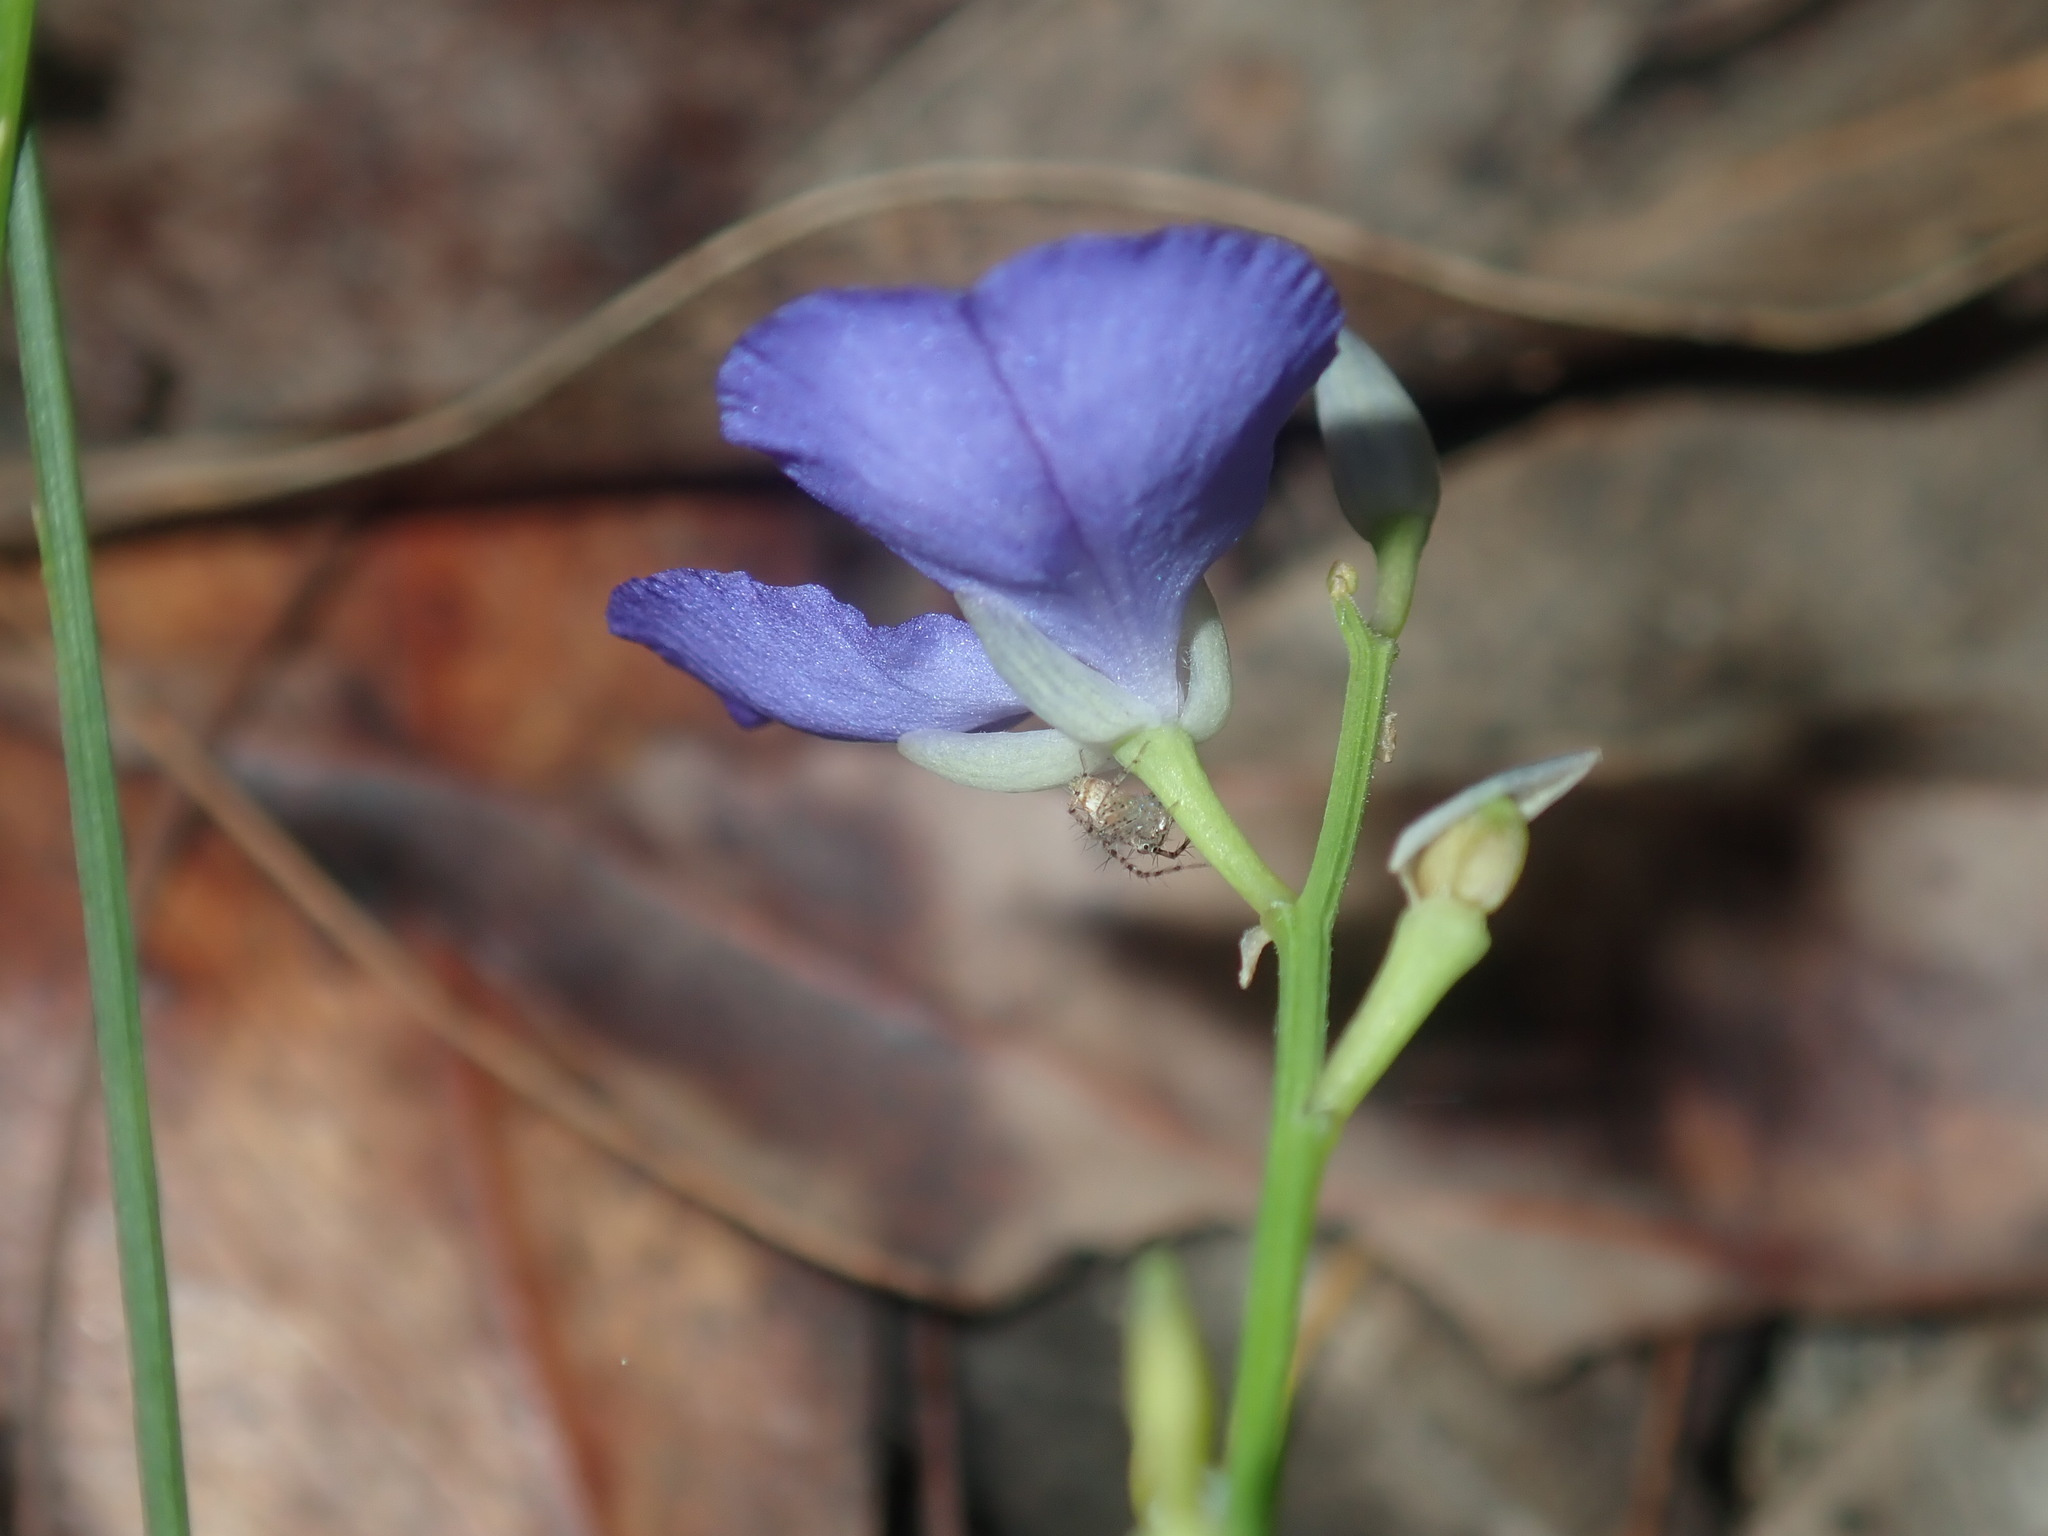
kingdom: Plantae
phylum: Tracheophyta
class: Magnoliopsida
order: Fabales
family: Polygalaceae
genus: Comesperma
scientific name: Comesperma volubile
